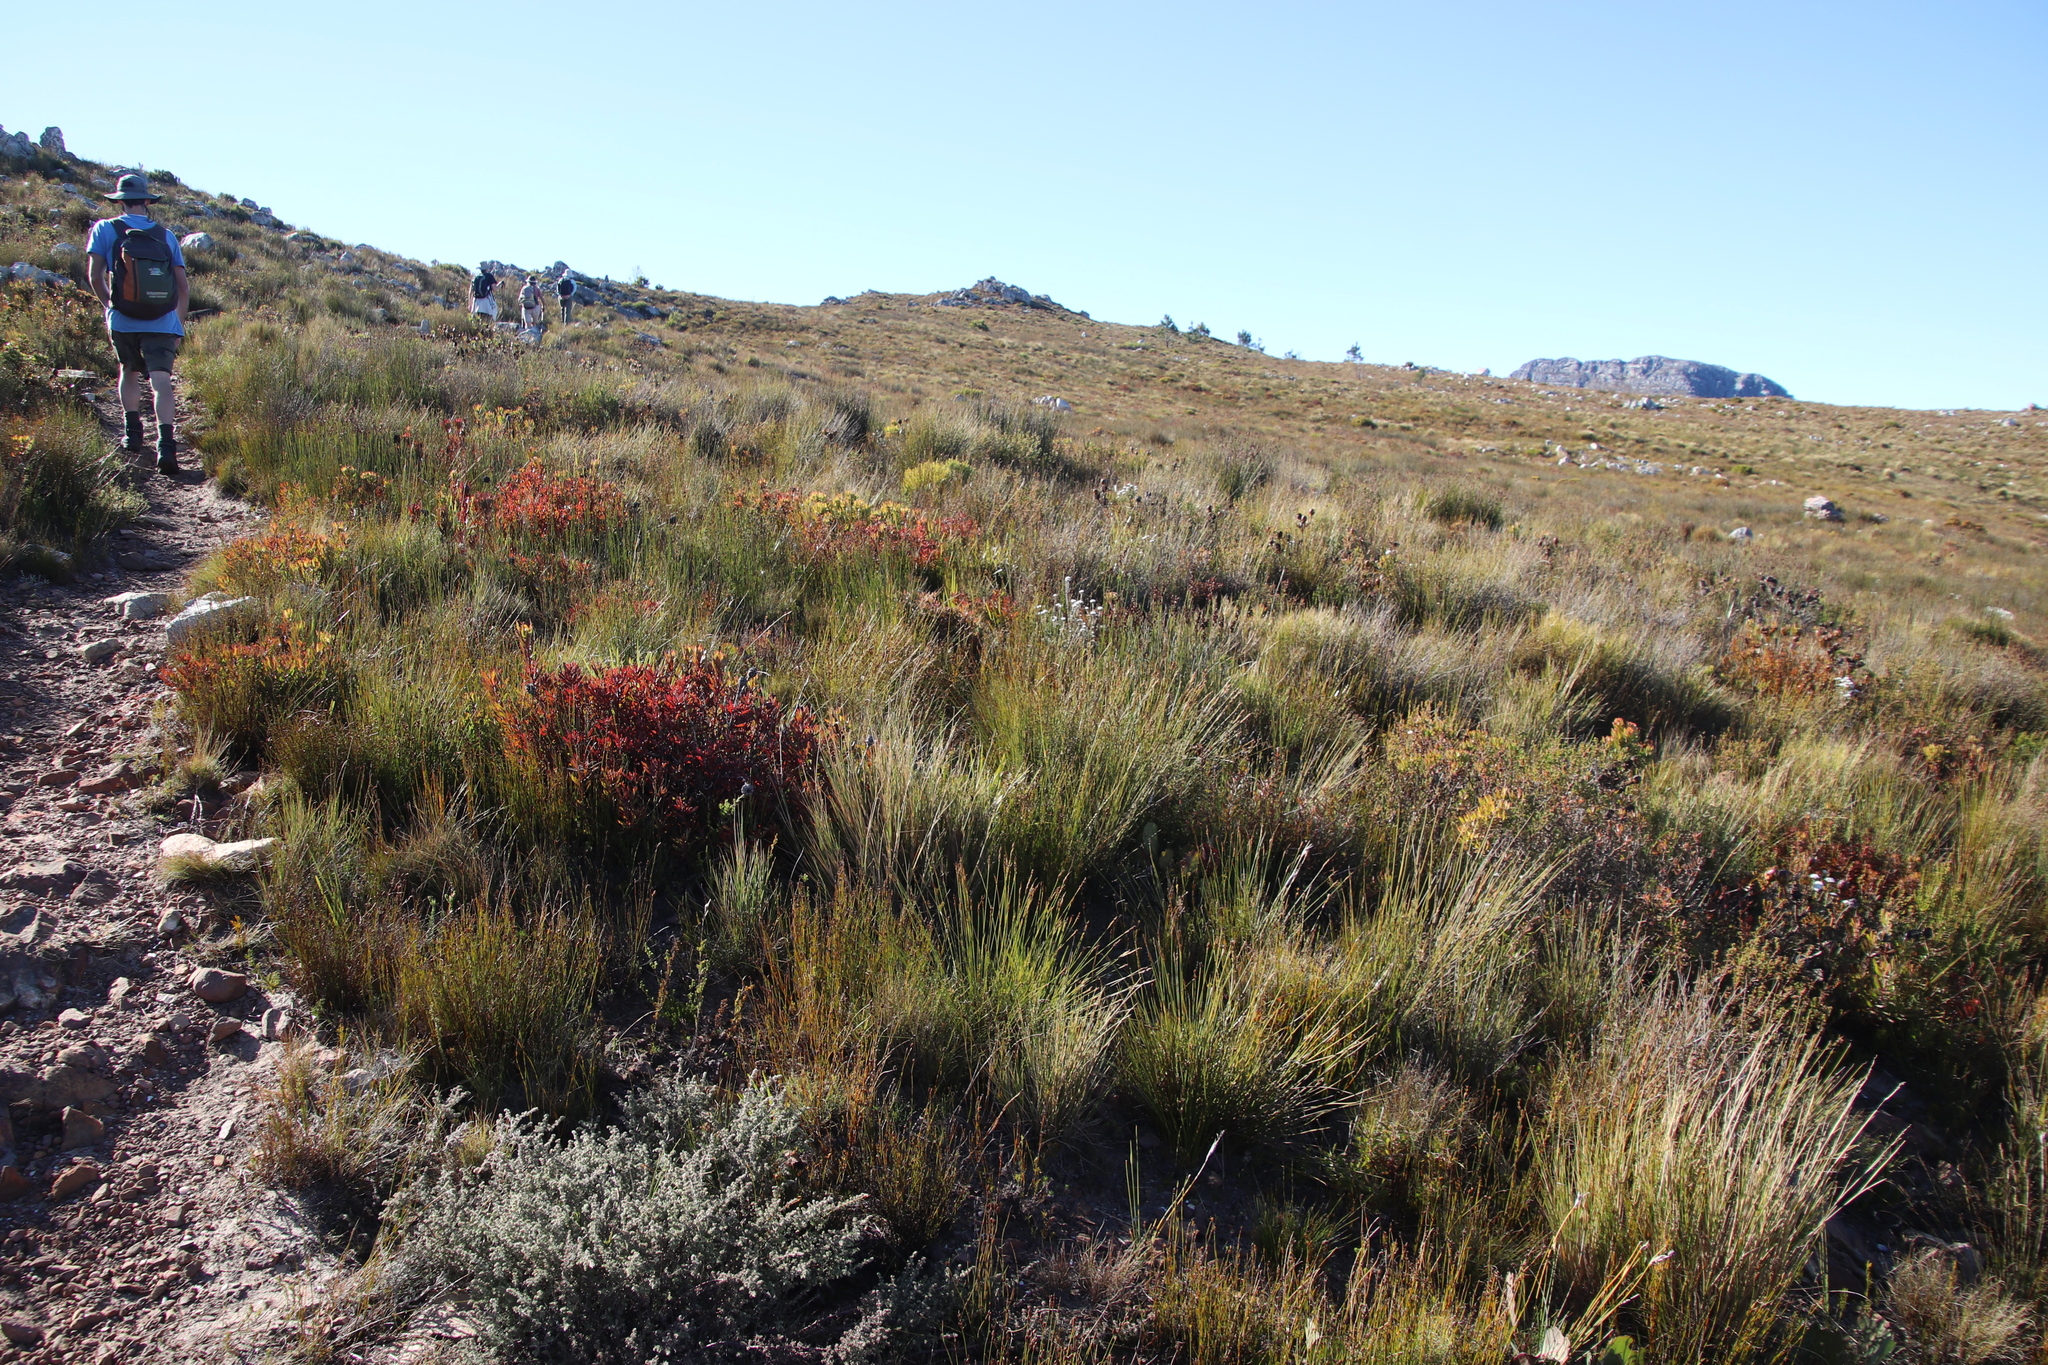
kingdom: Plantae
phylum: Tracheophyta
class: Magnoliopsida
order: Proteales
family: Proteaceae
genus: Leucadendron
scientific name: Leucadendron spissifolium
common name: Spear-leaf conebush
